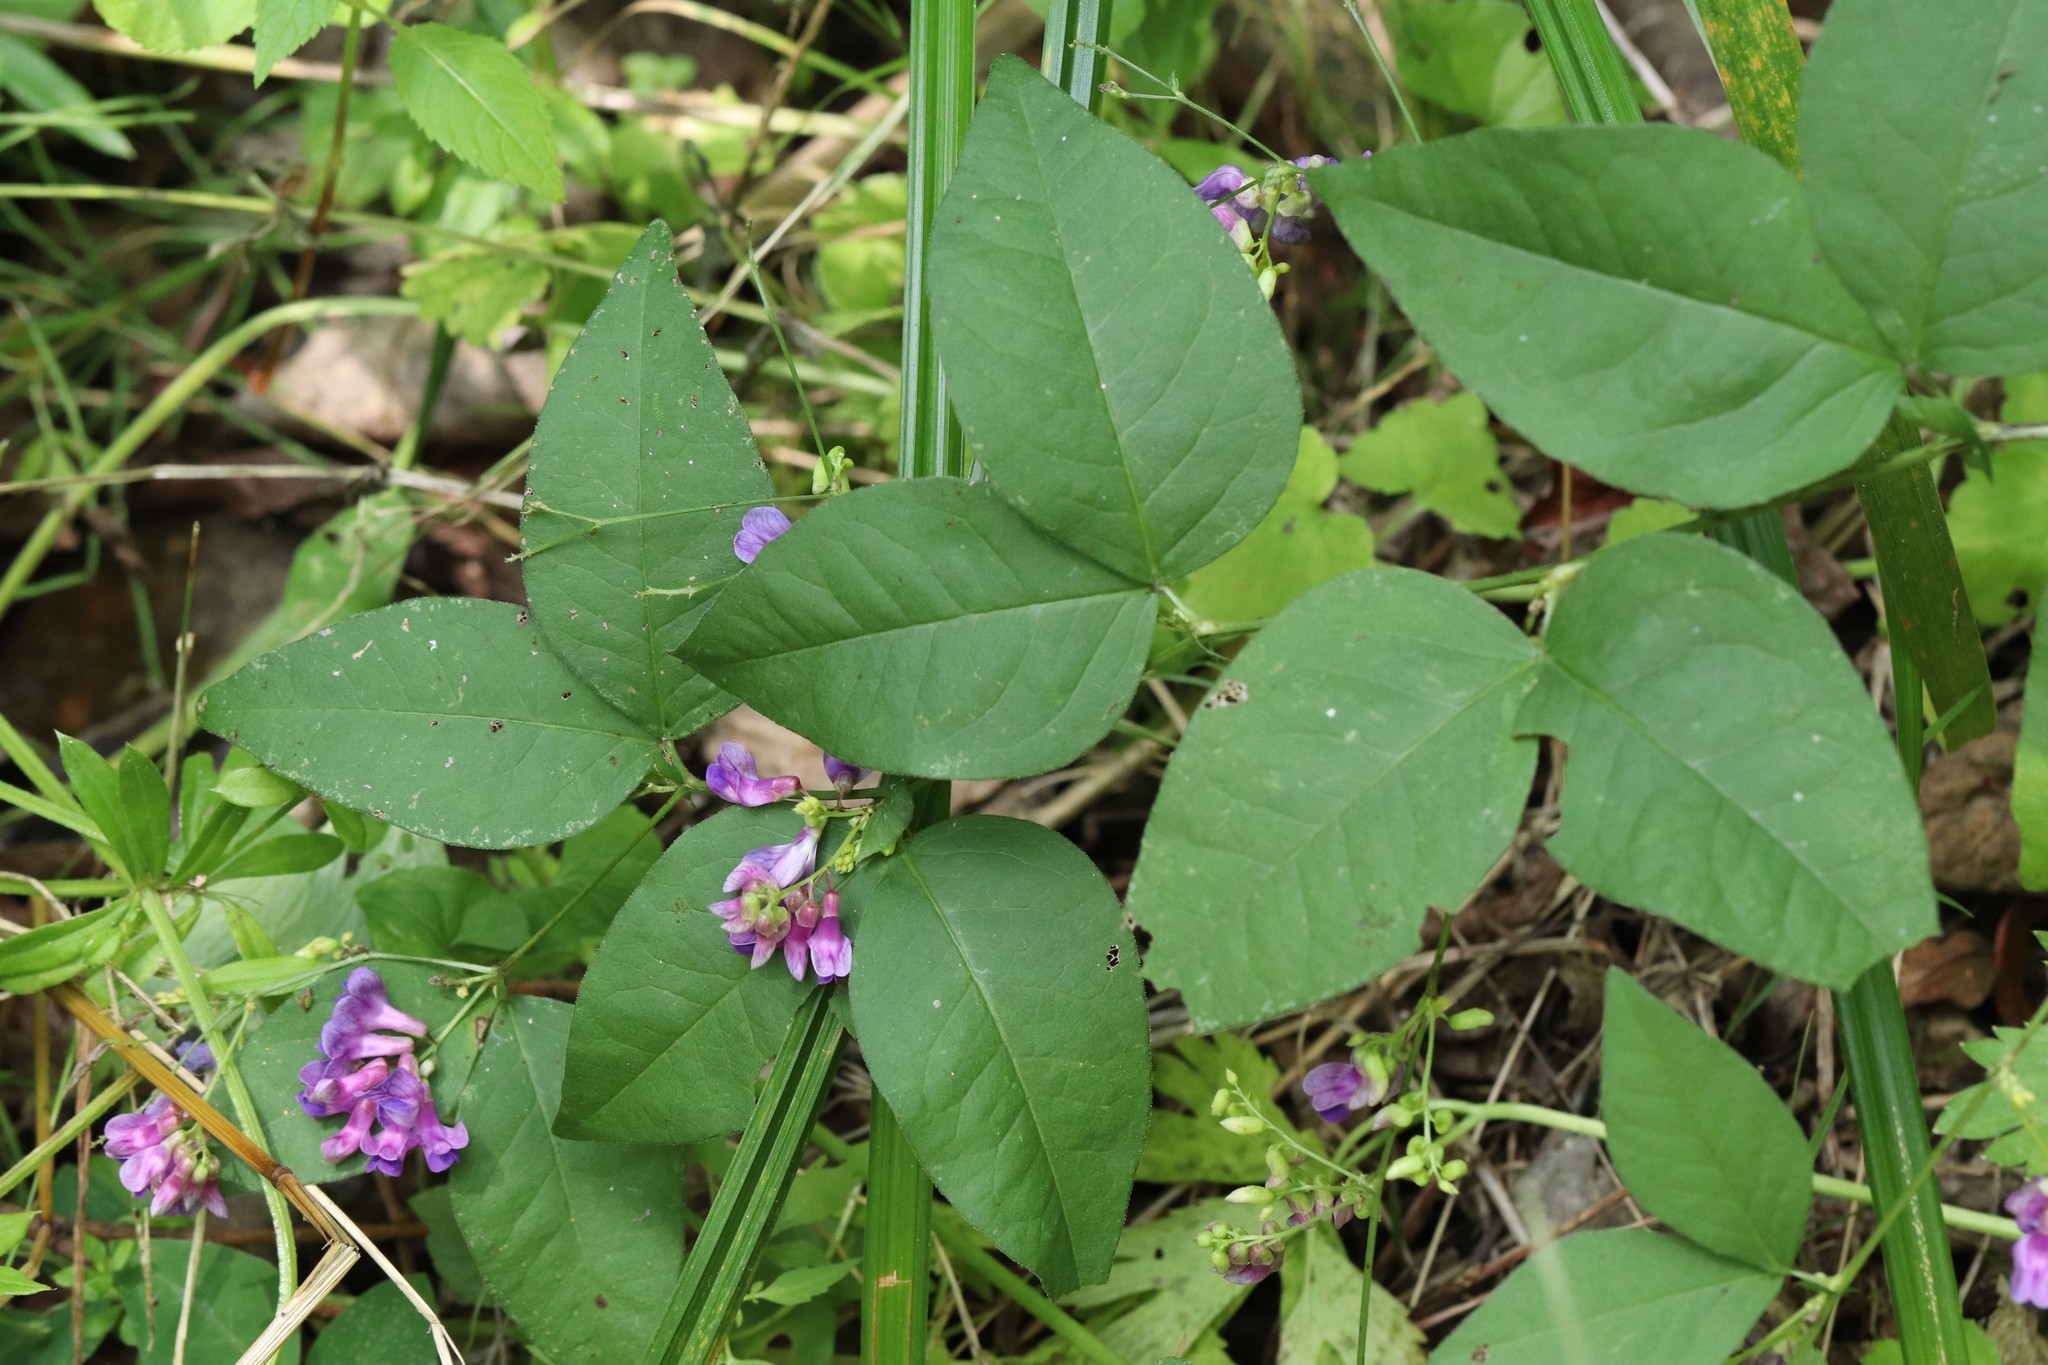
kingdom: Plantae
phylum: Tracheophyta
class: Magnoliopsida
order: Fabales
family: Fabaceae
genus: Vicia
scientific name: Vicia unijuga
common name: Two-leaf vetch
